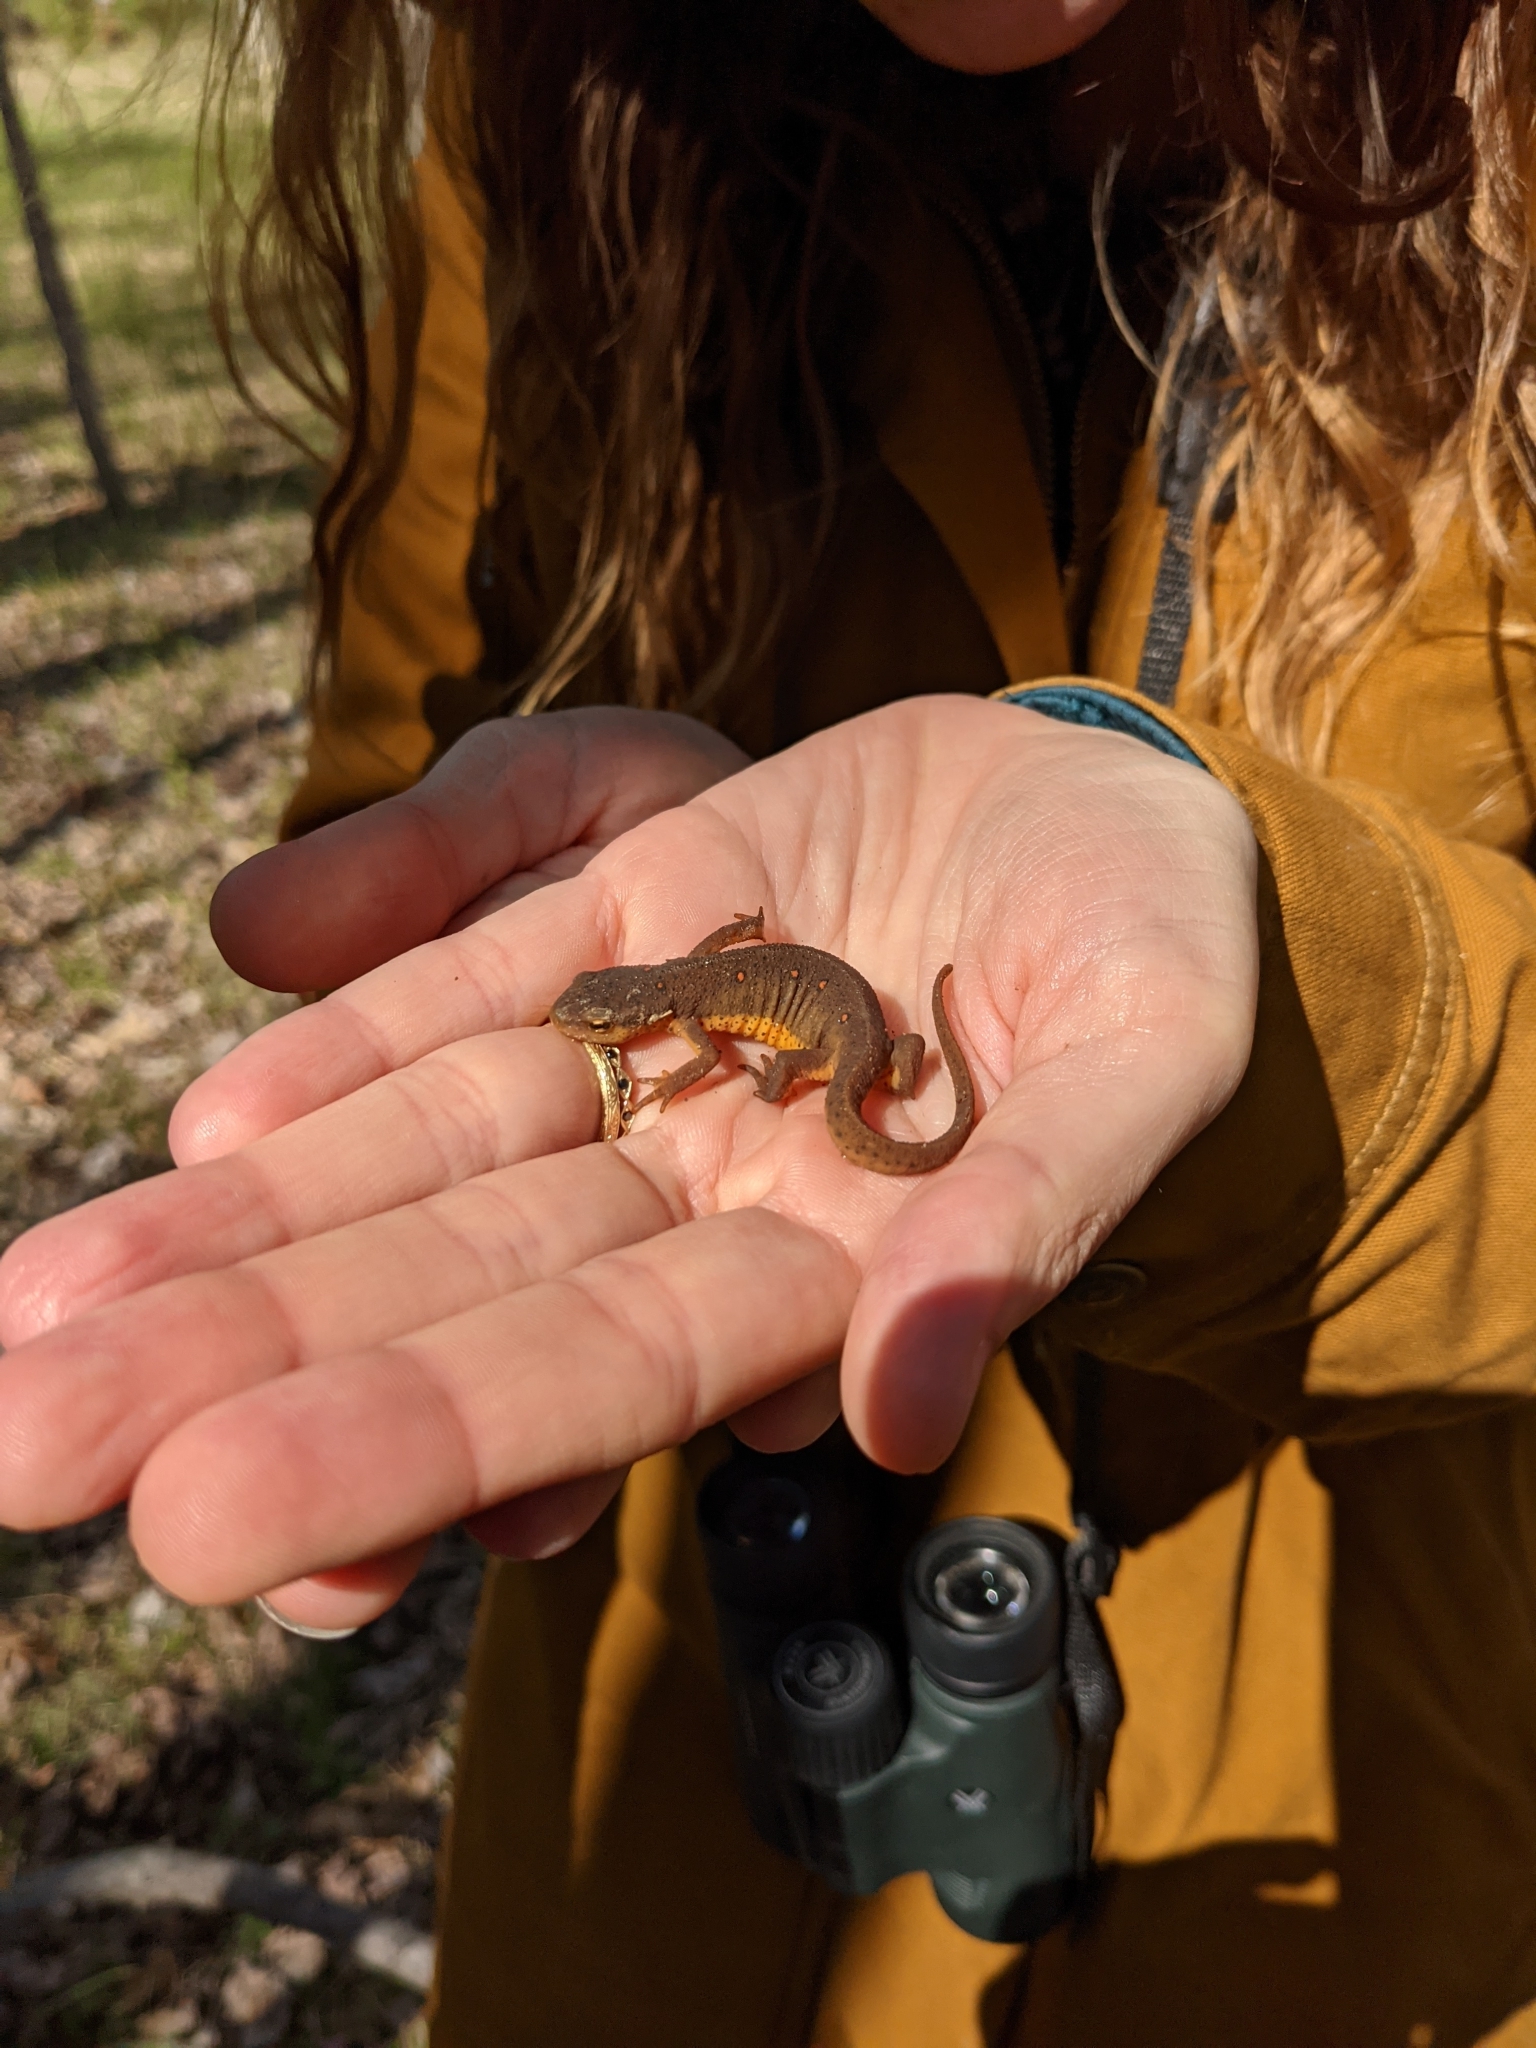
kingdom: Animalia
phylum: Chordata
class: Amphibia
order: Caudata
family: Salamandridae
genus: Notophthalmus
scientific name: Notophthalmus viridescens
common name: Eastern newt
